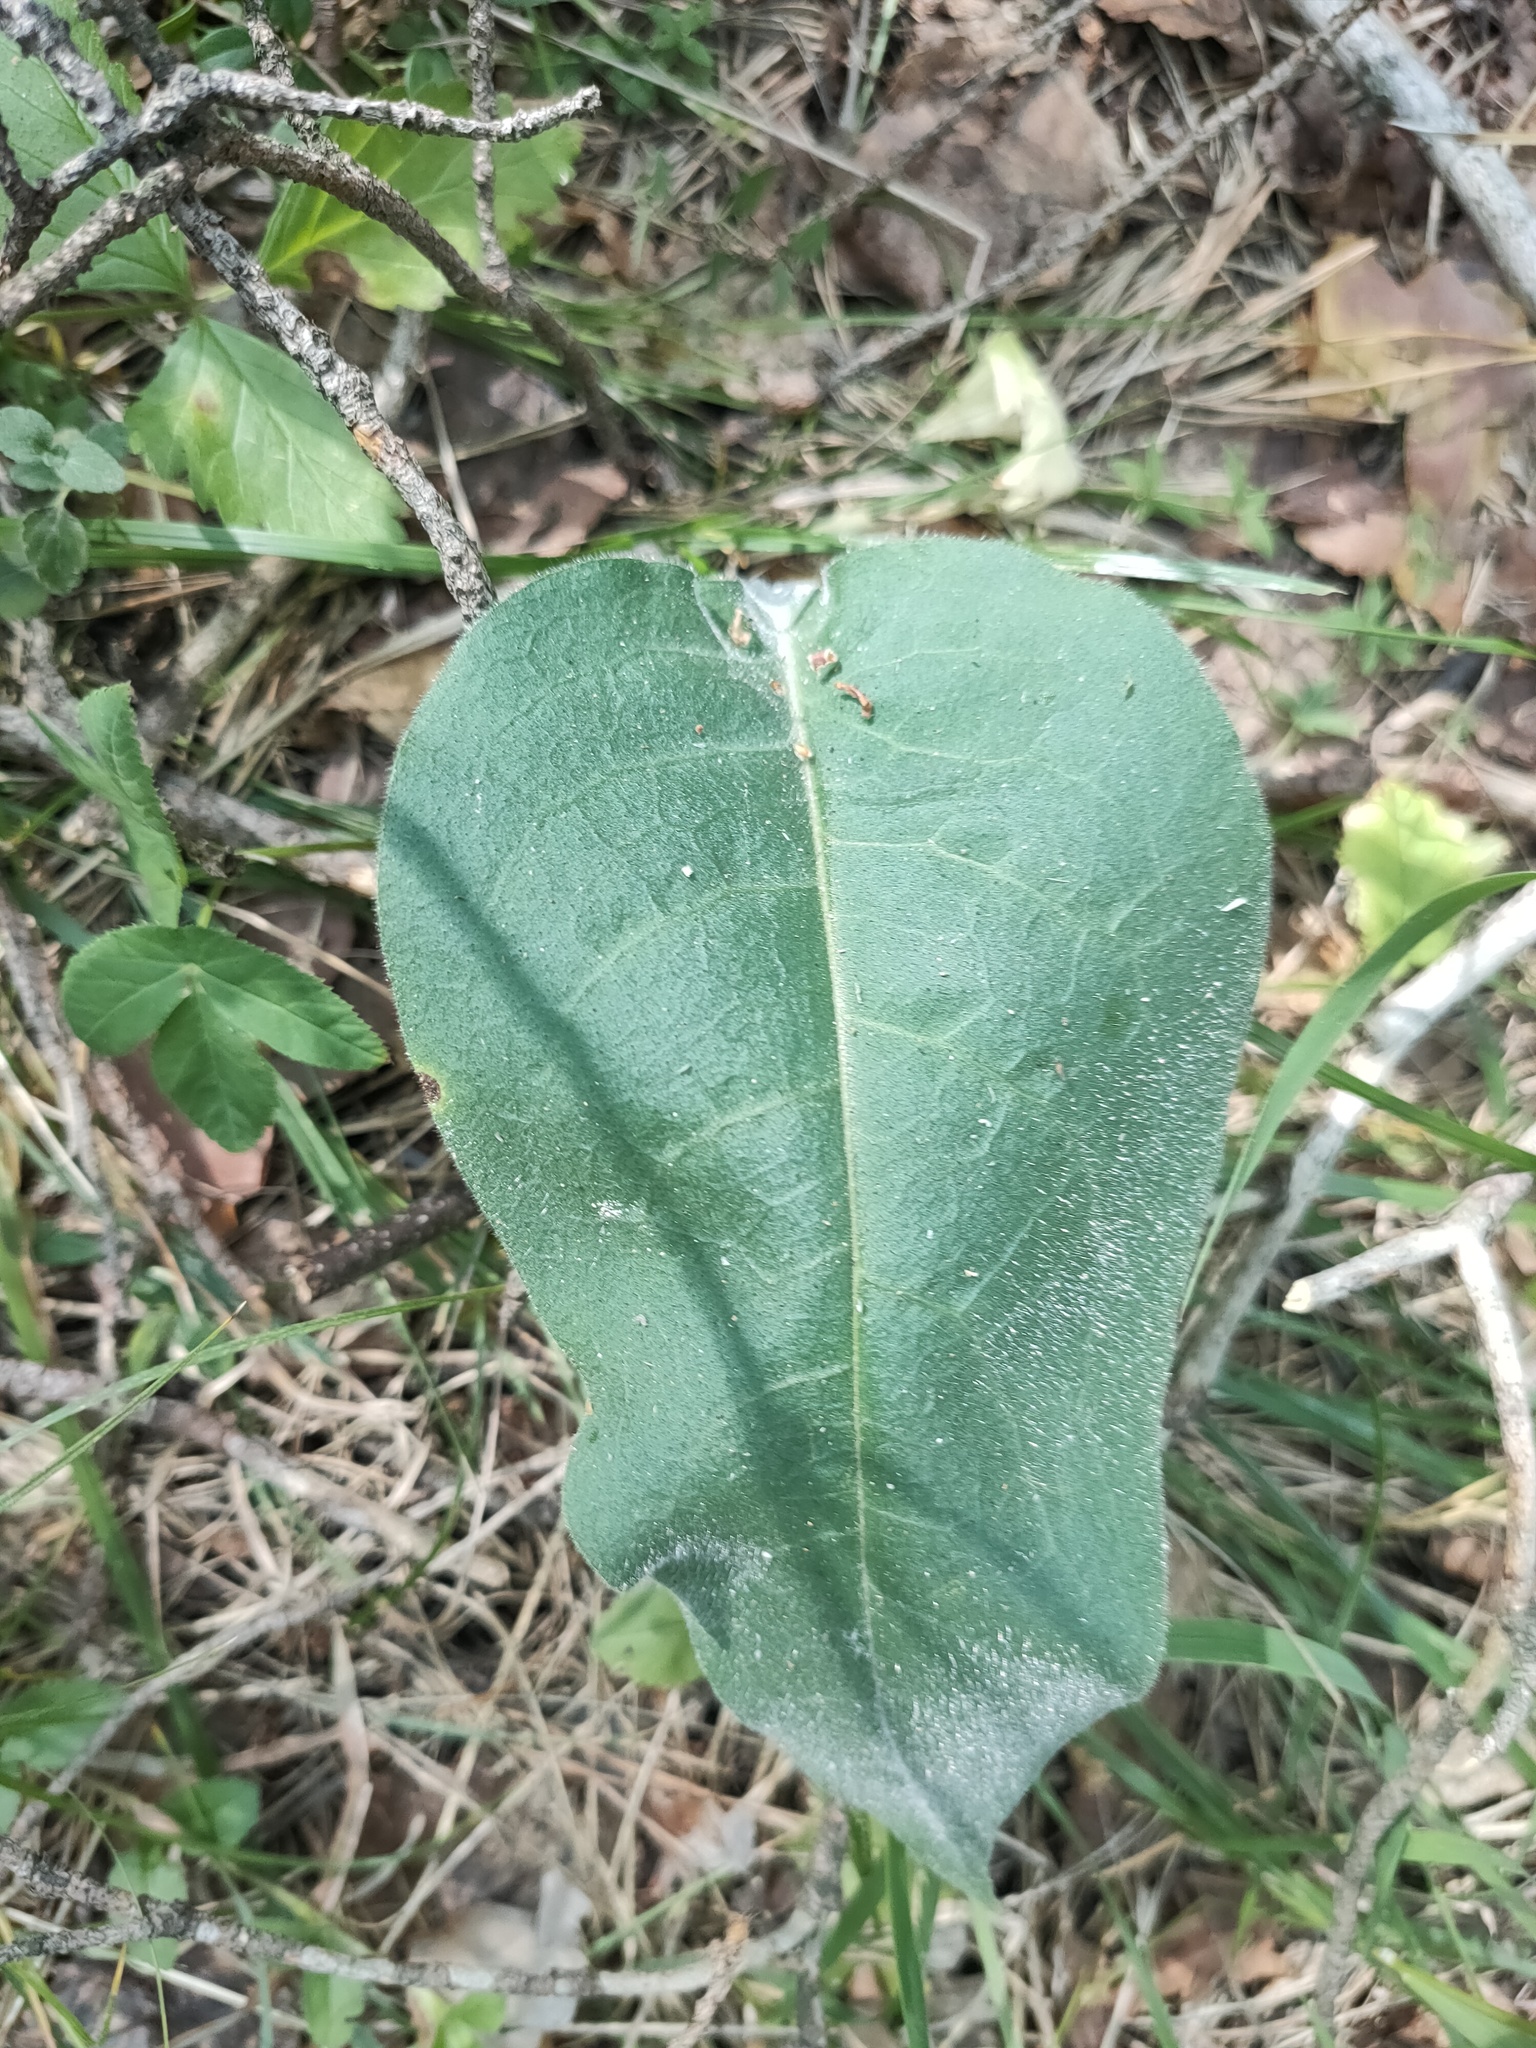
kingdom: Plantae
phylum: Tracheophyta
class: Magnoliopsida
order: Boraginales
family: Boraginaceae
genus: Pulmonaria
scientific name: Pulmonaria mollis
